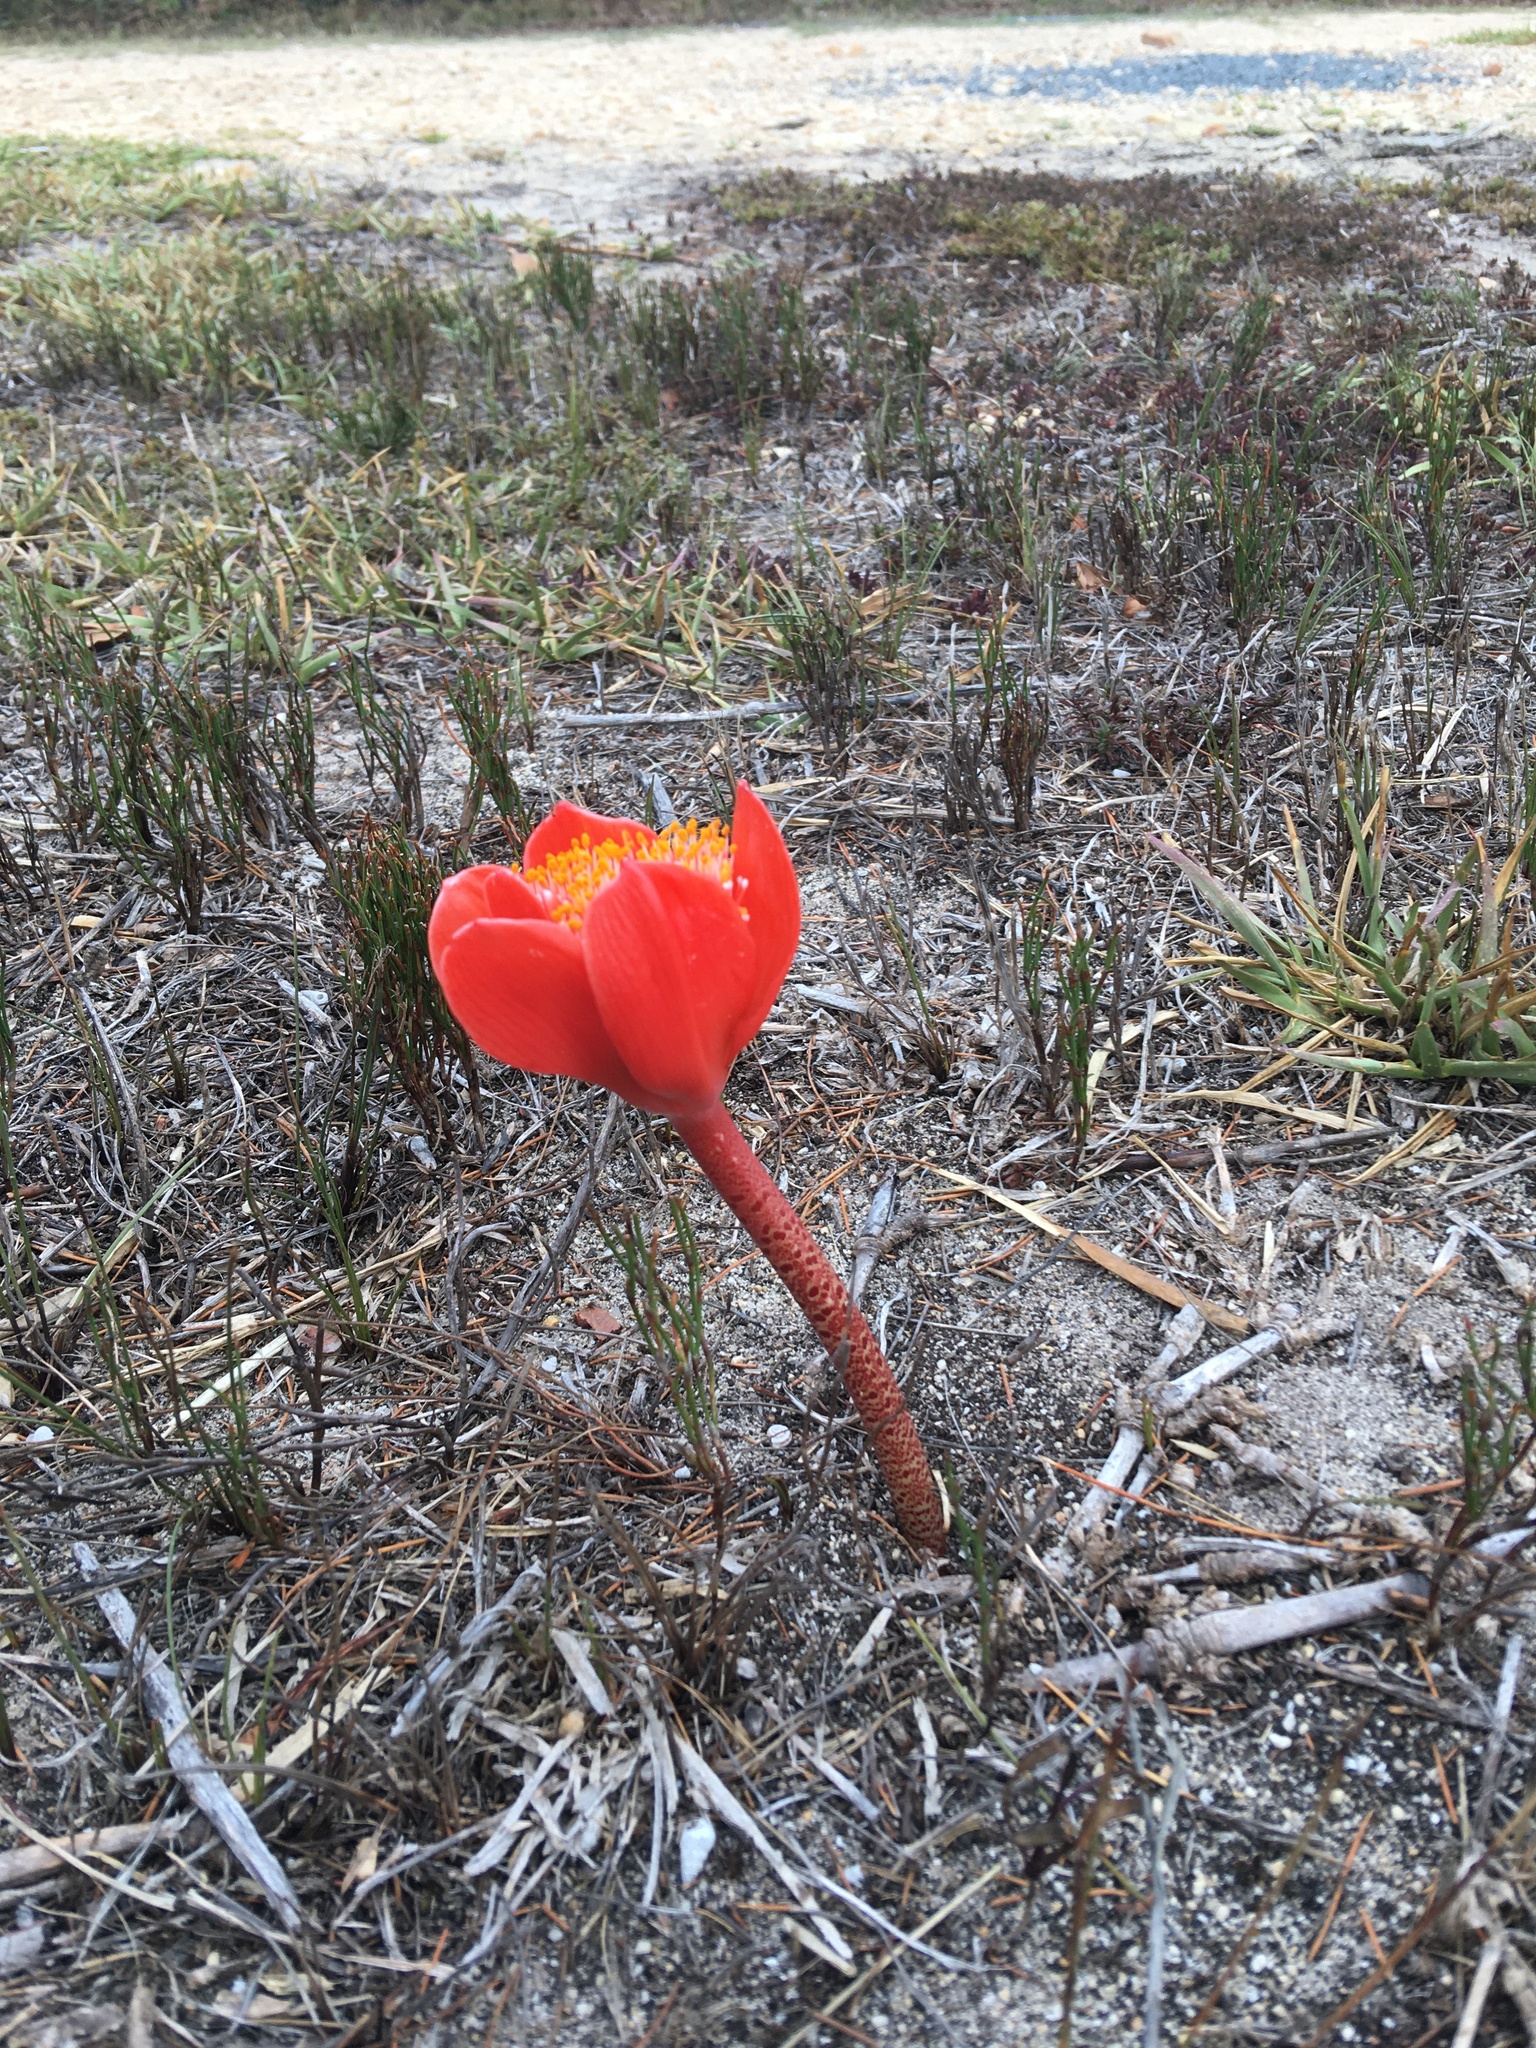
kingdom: Plantae
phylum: Tracheophyta
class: Liliopsida
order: Asparagales
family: Amaryllidaceae
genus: Haemanthus
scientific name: Haemanthus coccineus
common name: Cape-tulip
